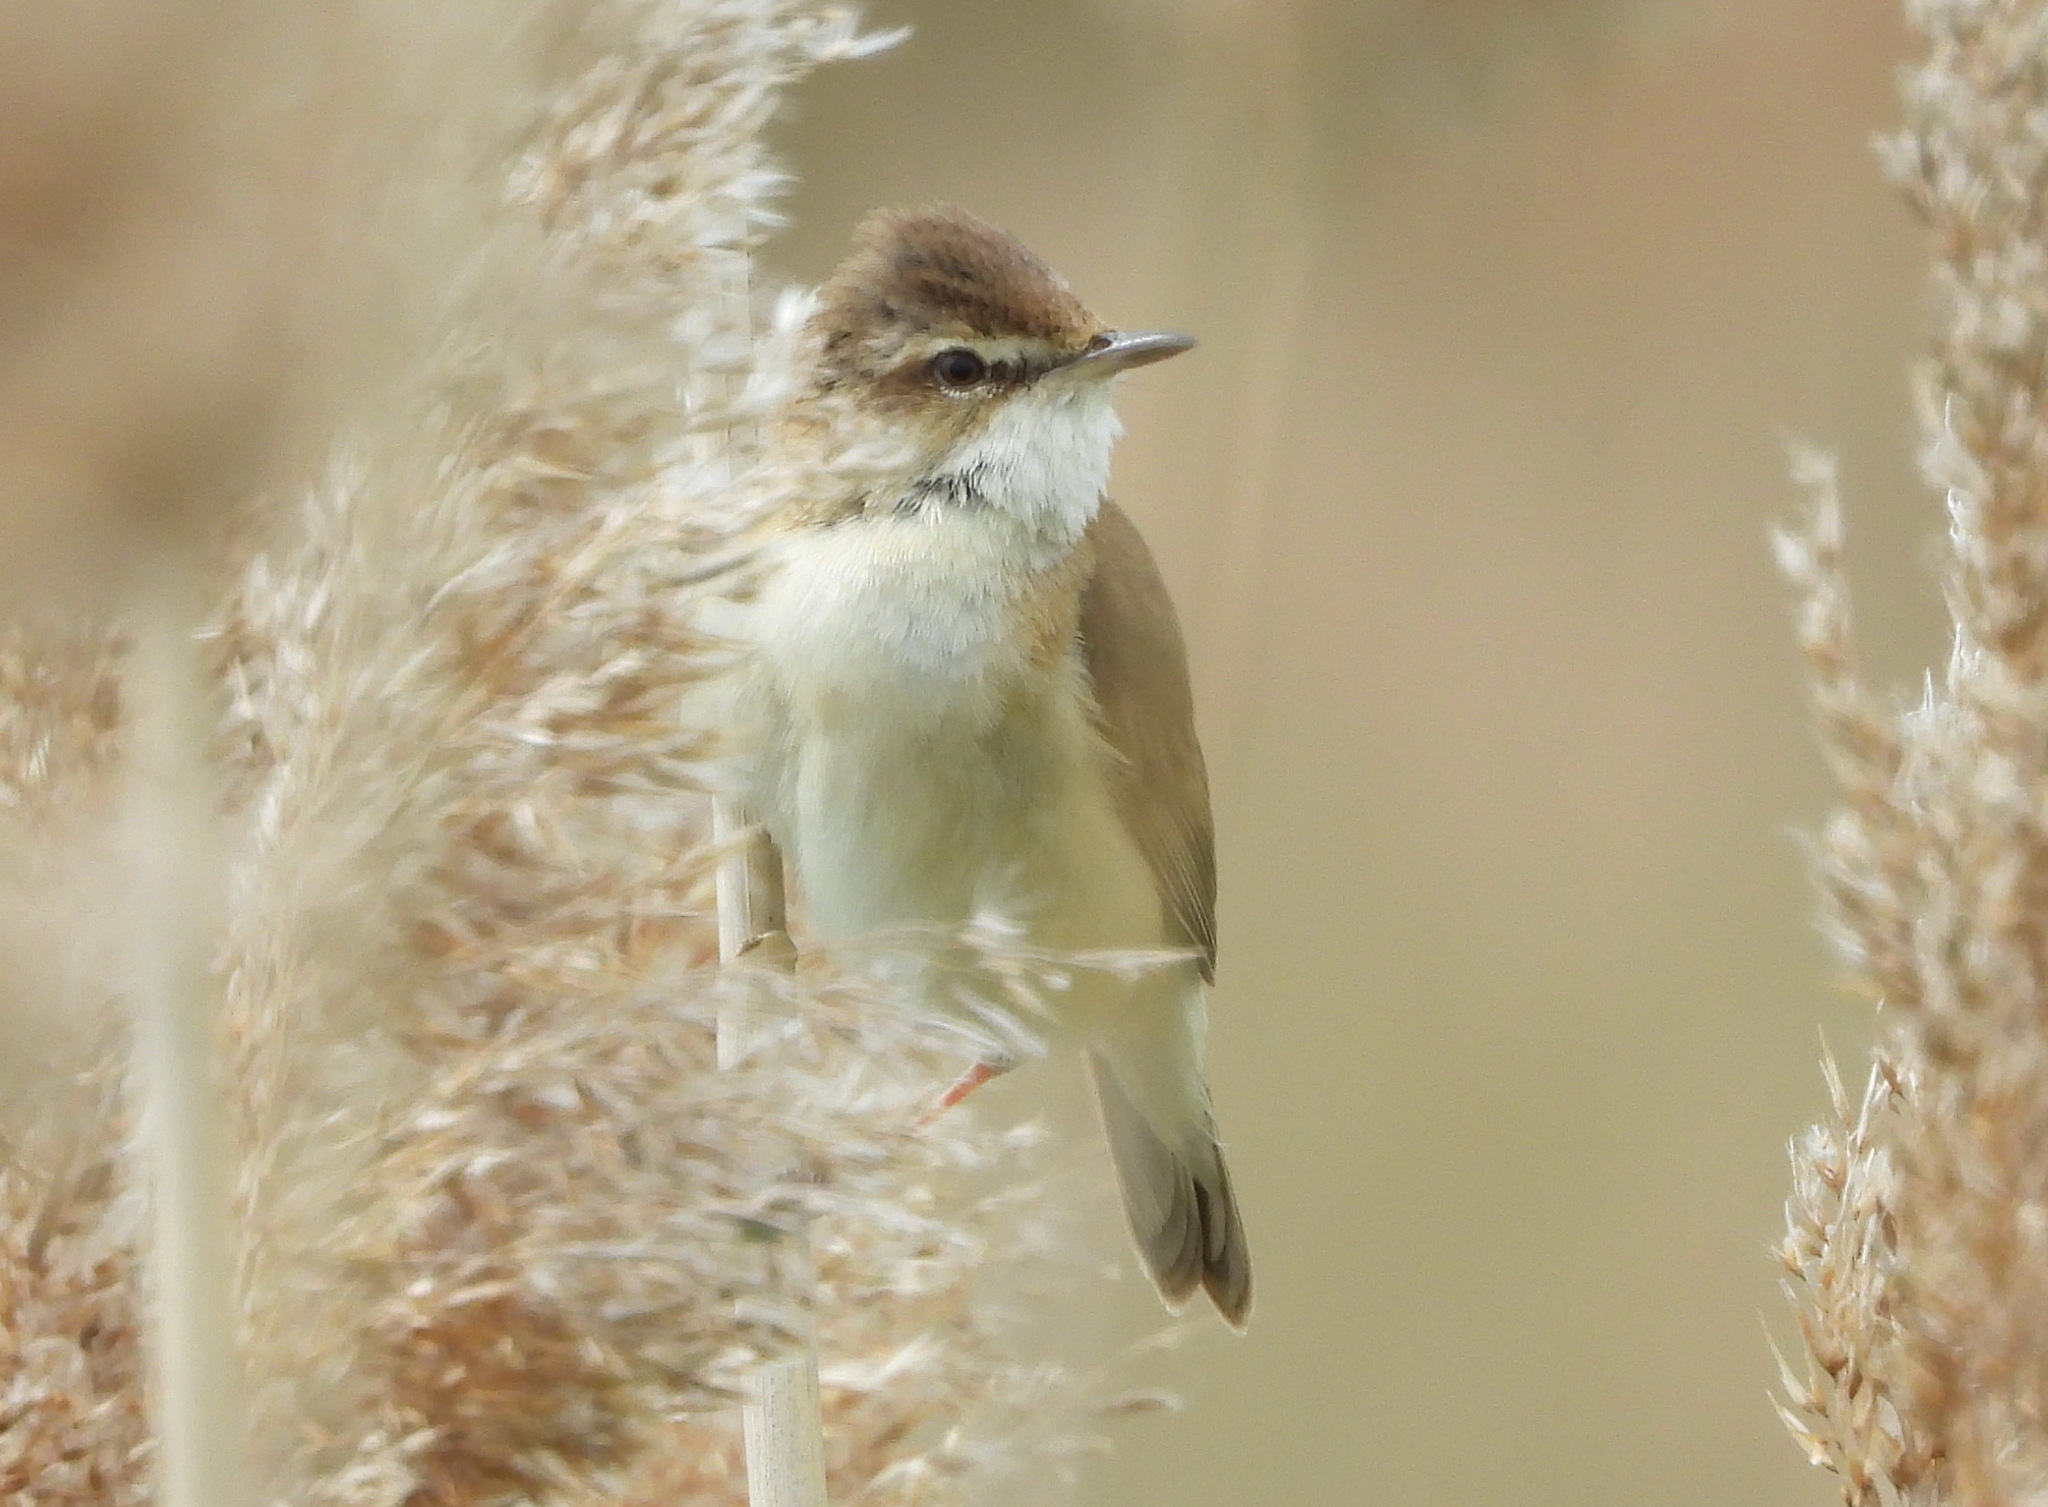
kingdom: Animalia
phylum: Chordata
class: Aves
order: Passeriformes
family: Acrocephalidae
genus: Acrocephalus
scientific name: Acrocephalus agricola
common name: Paddyfield warbler
